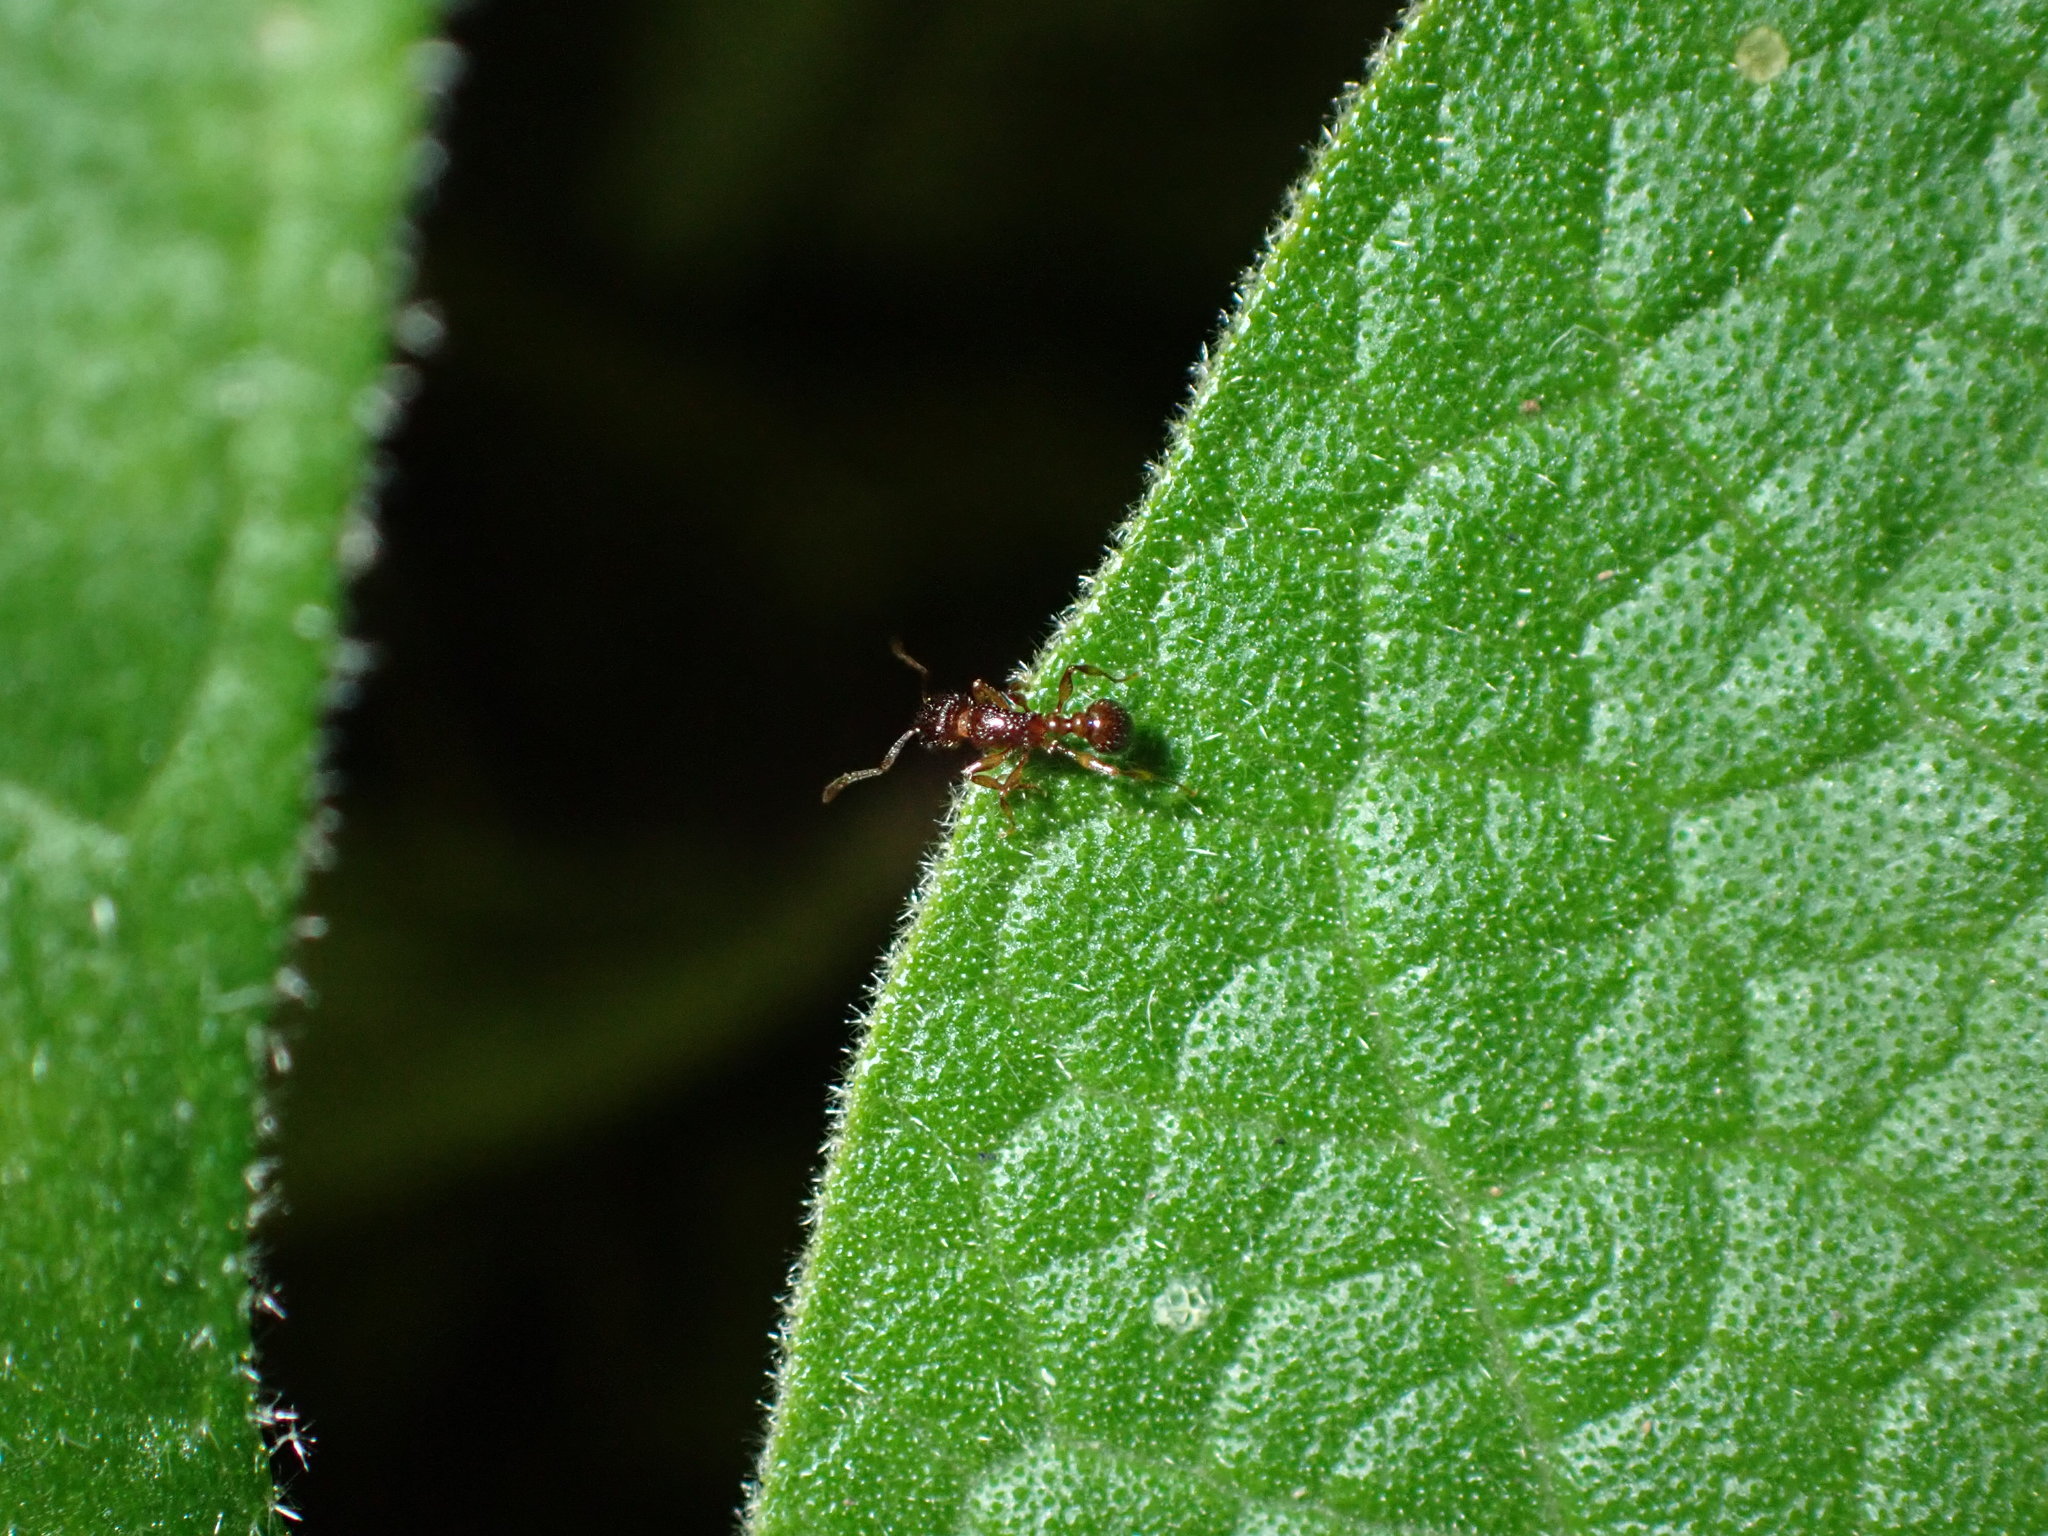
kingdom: Animalia
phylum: Arthropoda
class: Insecta
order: Hymenoptera
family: Formicidae
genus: Tetramorium
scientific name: Tetramorium grassii
